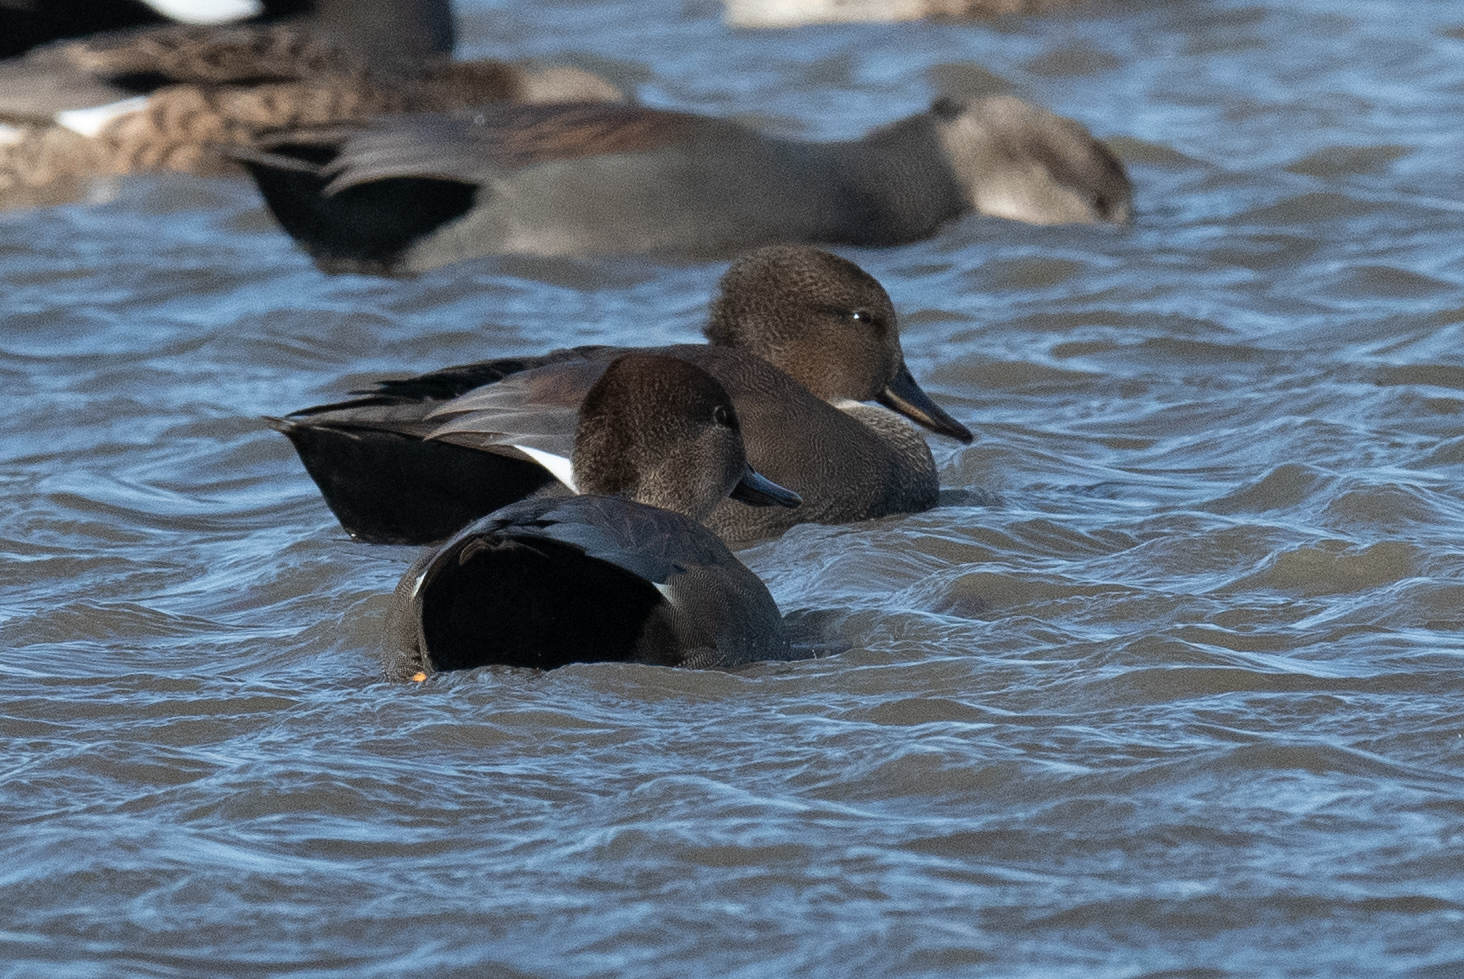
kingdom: Animalia
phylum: Chordata
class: Aves
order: Anseriformes
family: Anatidae
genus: Mareca
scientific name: Mareca strepera
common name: Gadwall
